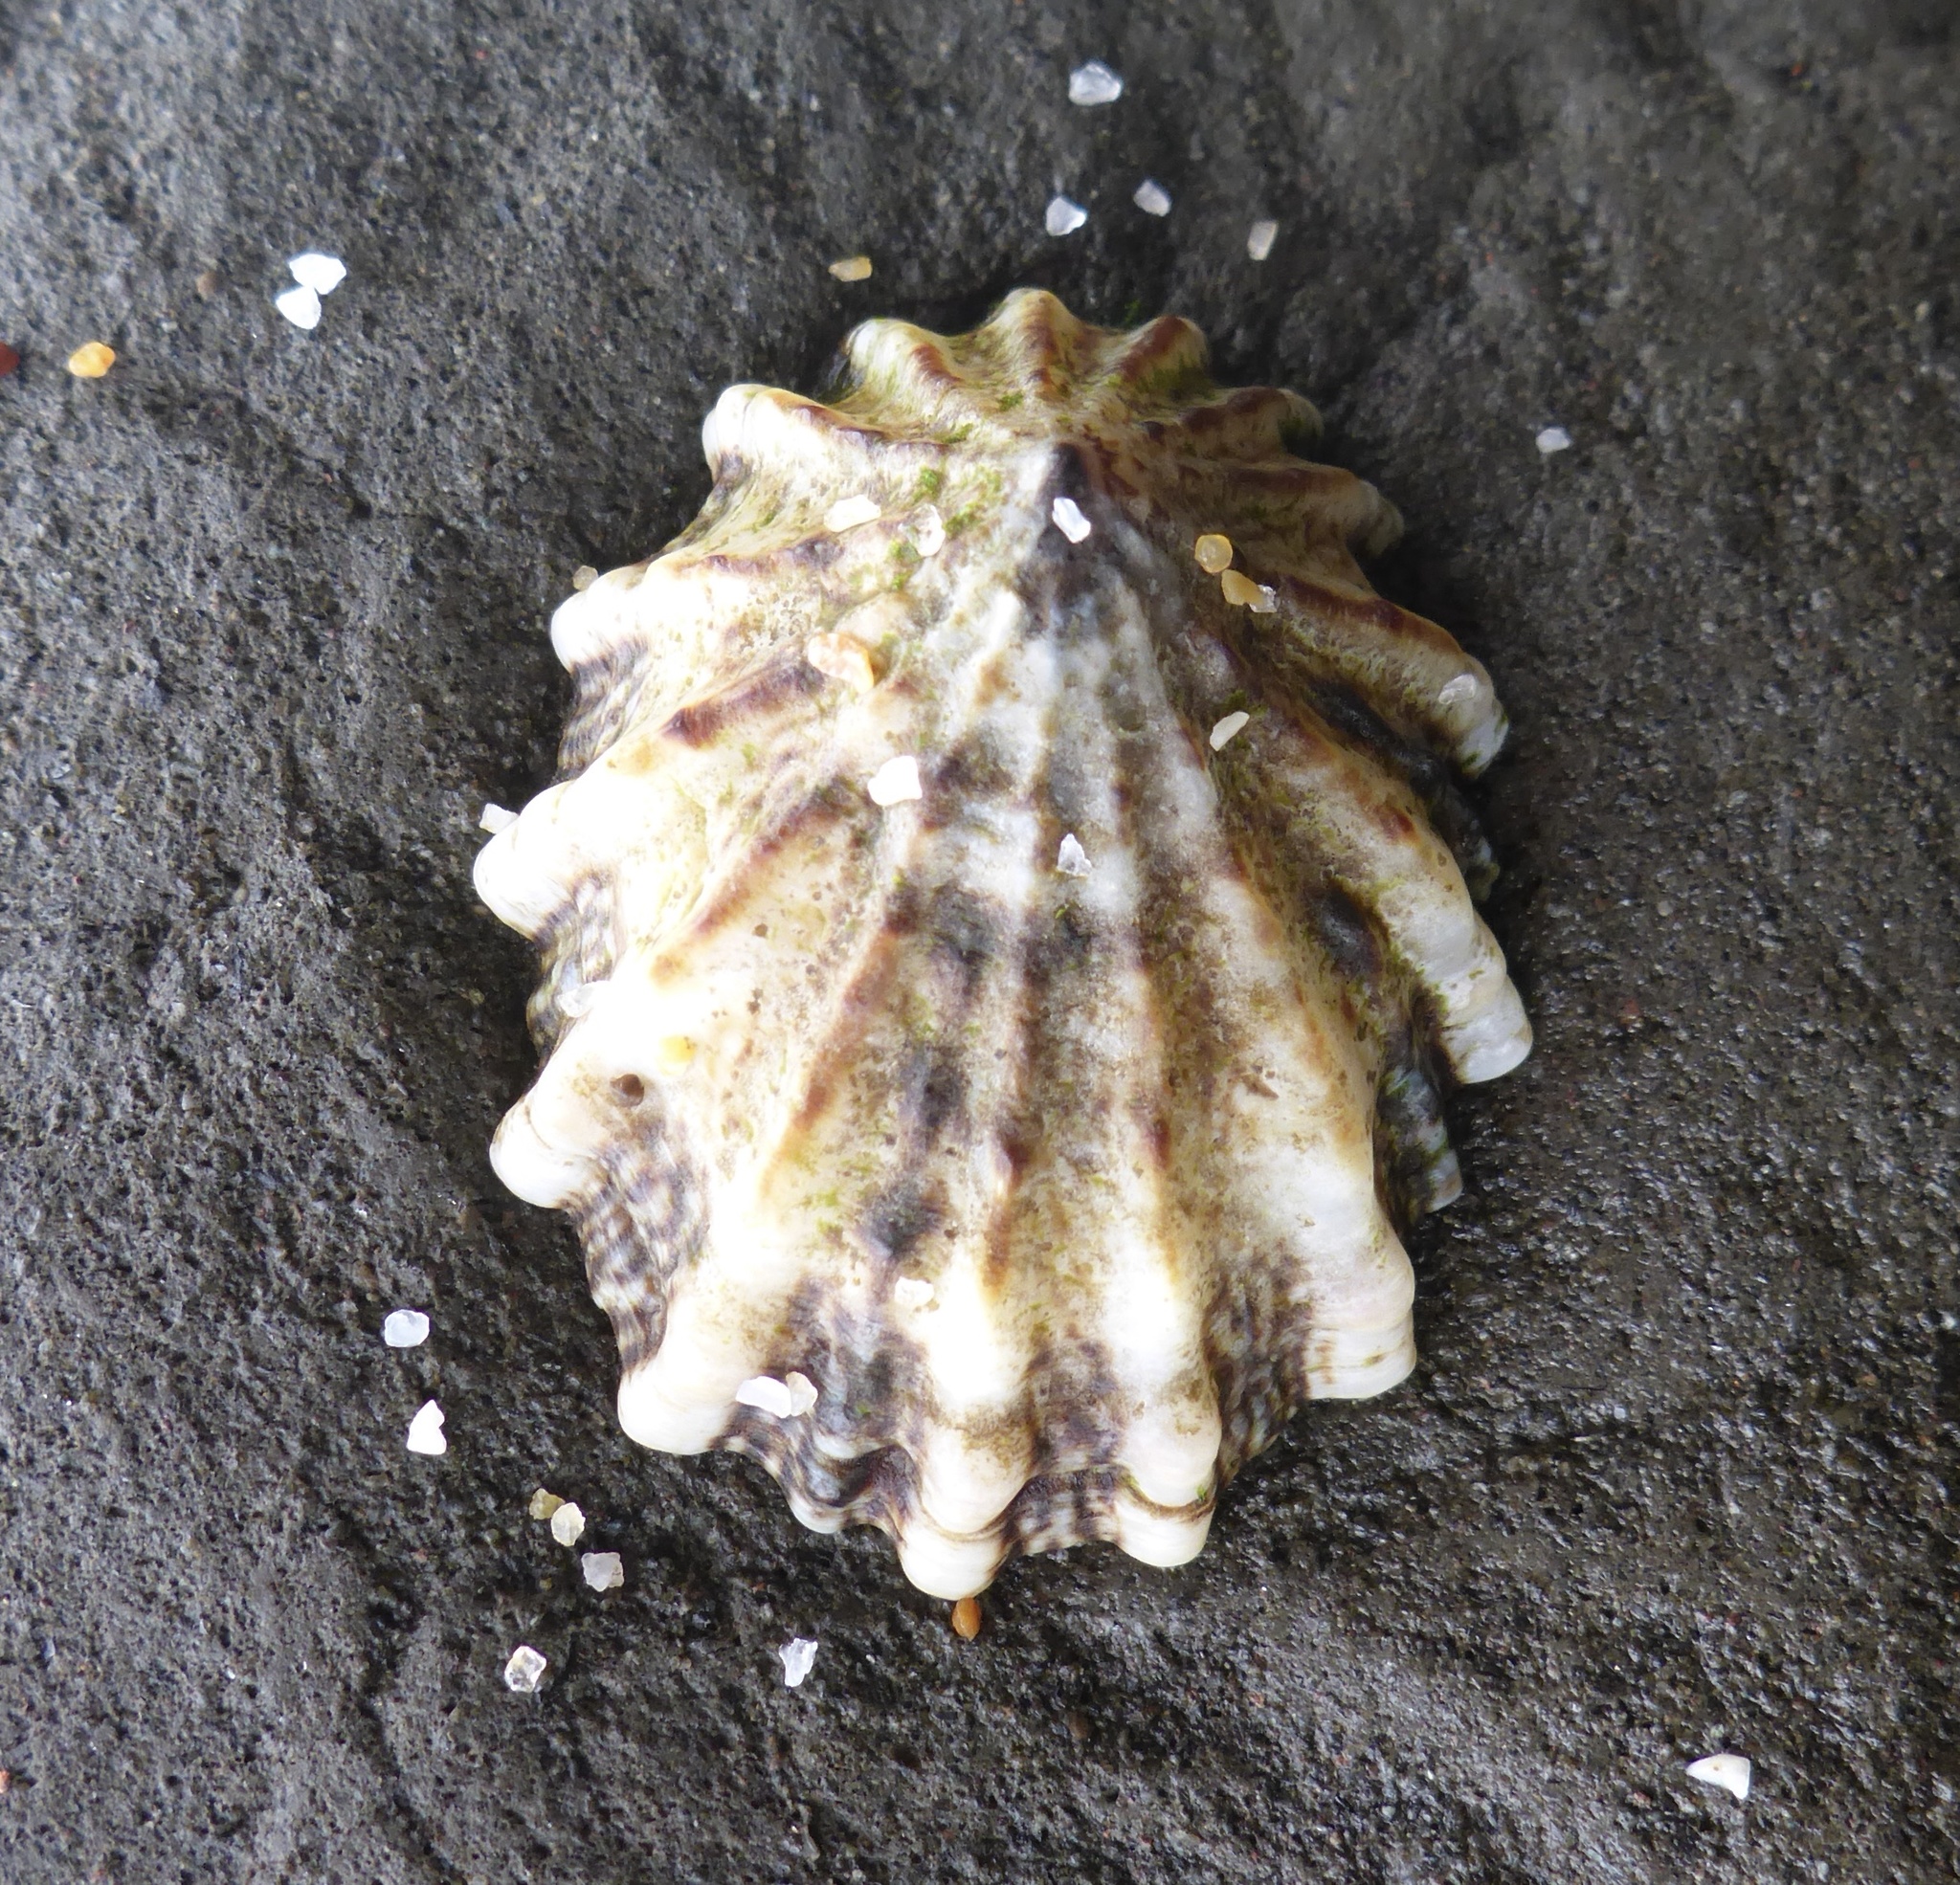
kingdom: Animalia
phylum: Mollusca
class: Gastropoda
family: Lottiidae
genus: Lottia
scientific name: Lottia scabra
